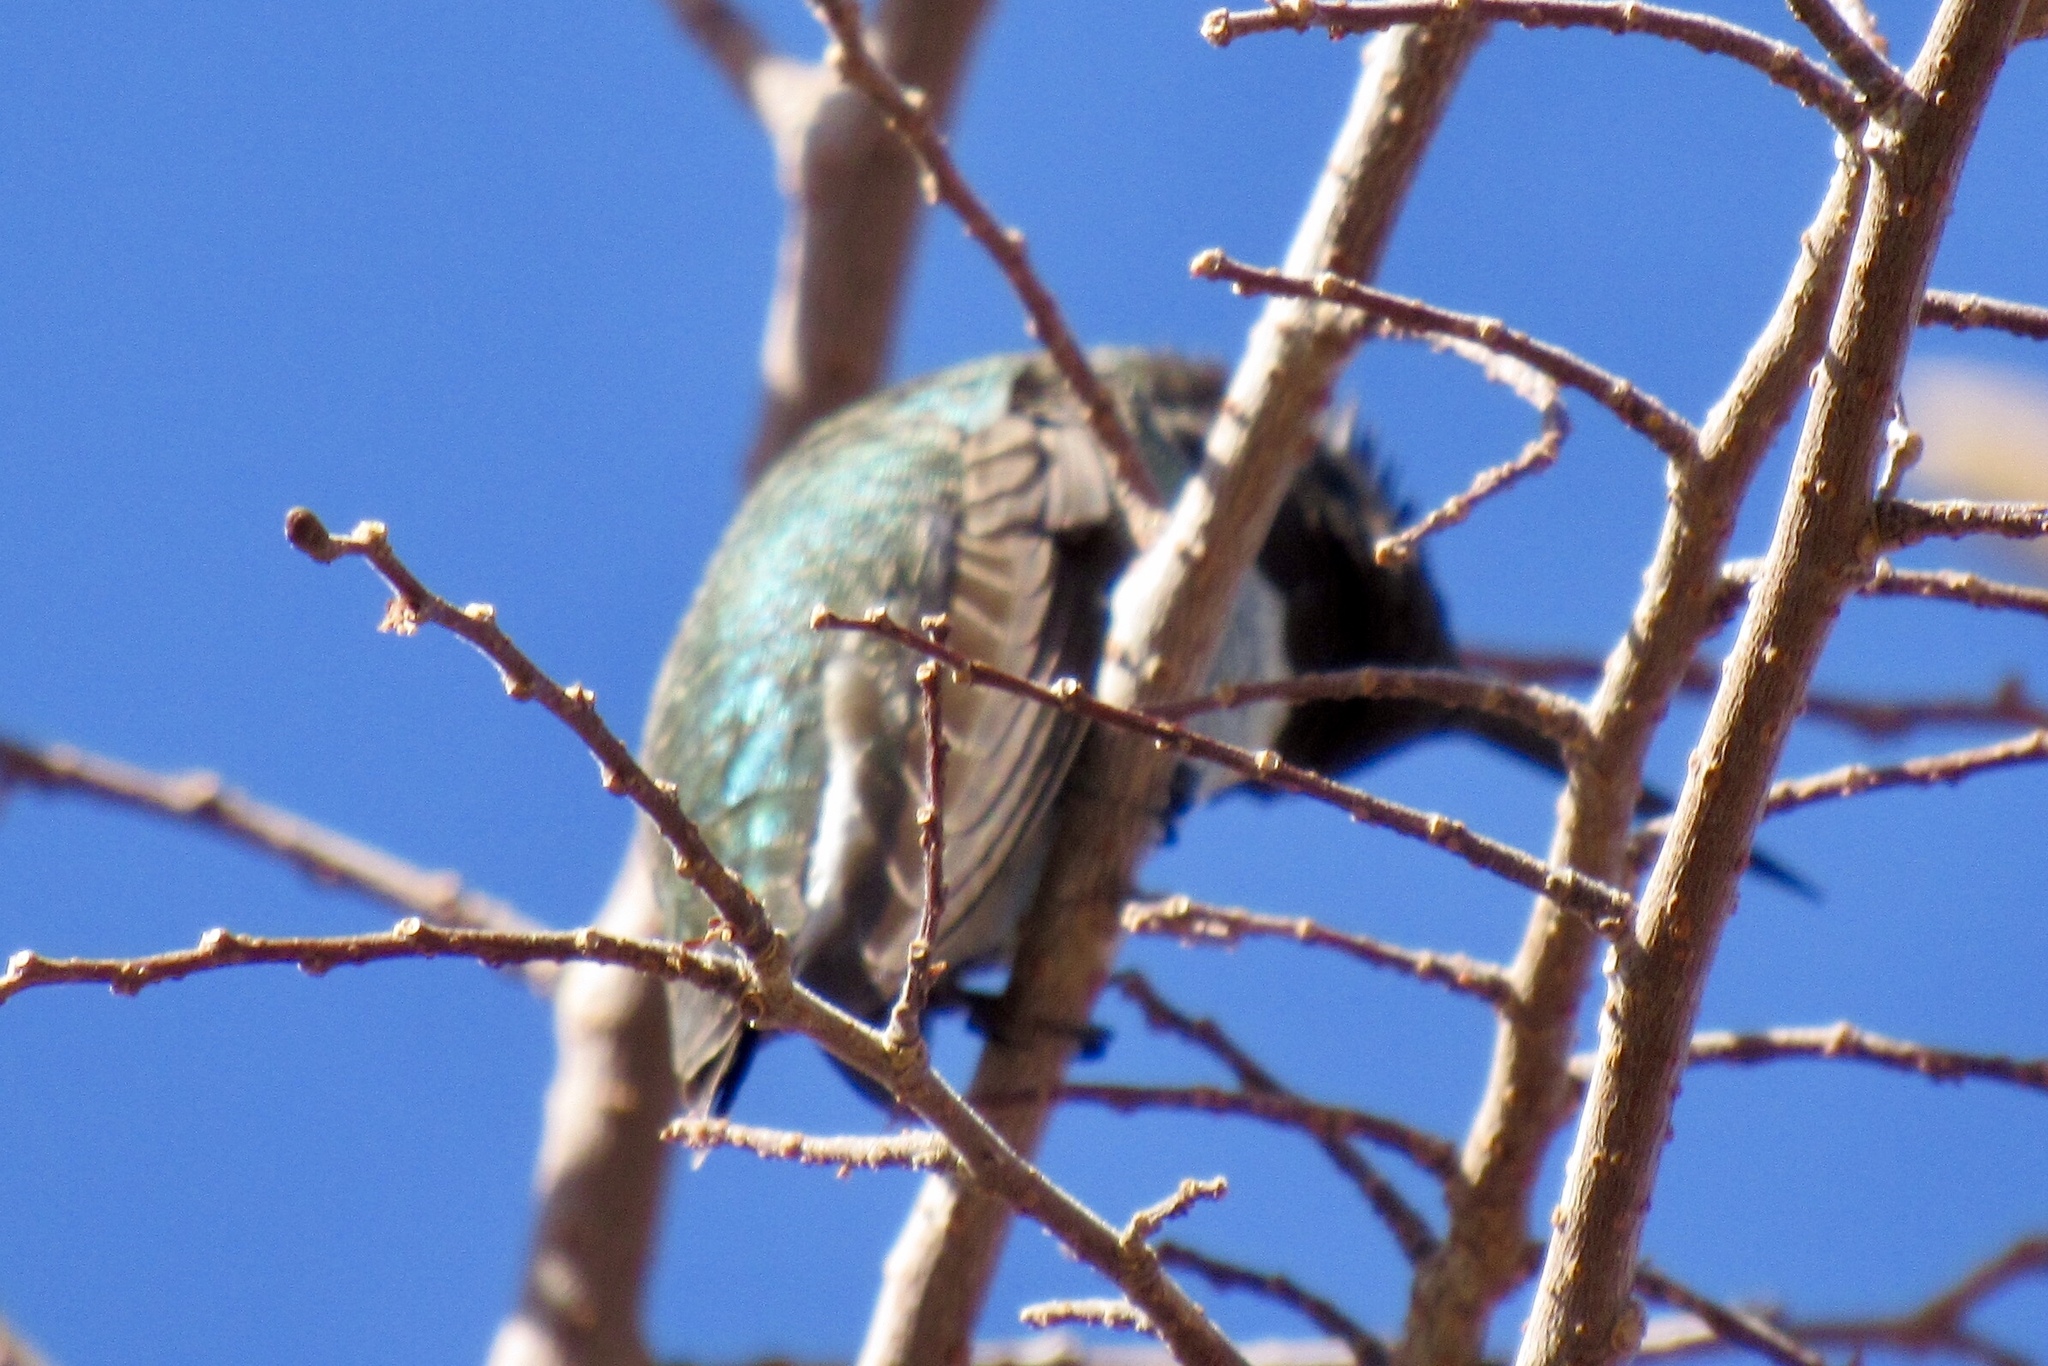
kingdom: Animalia
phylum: Chordata
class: Aves
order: Apodiformes
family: Trochilidae
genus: Calypte
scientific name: Calypte anna
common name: Anna's hummingbird
